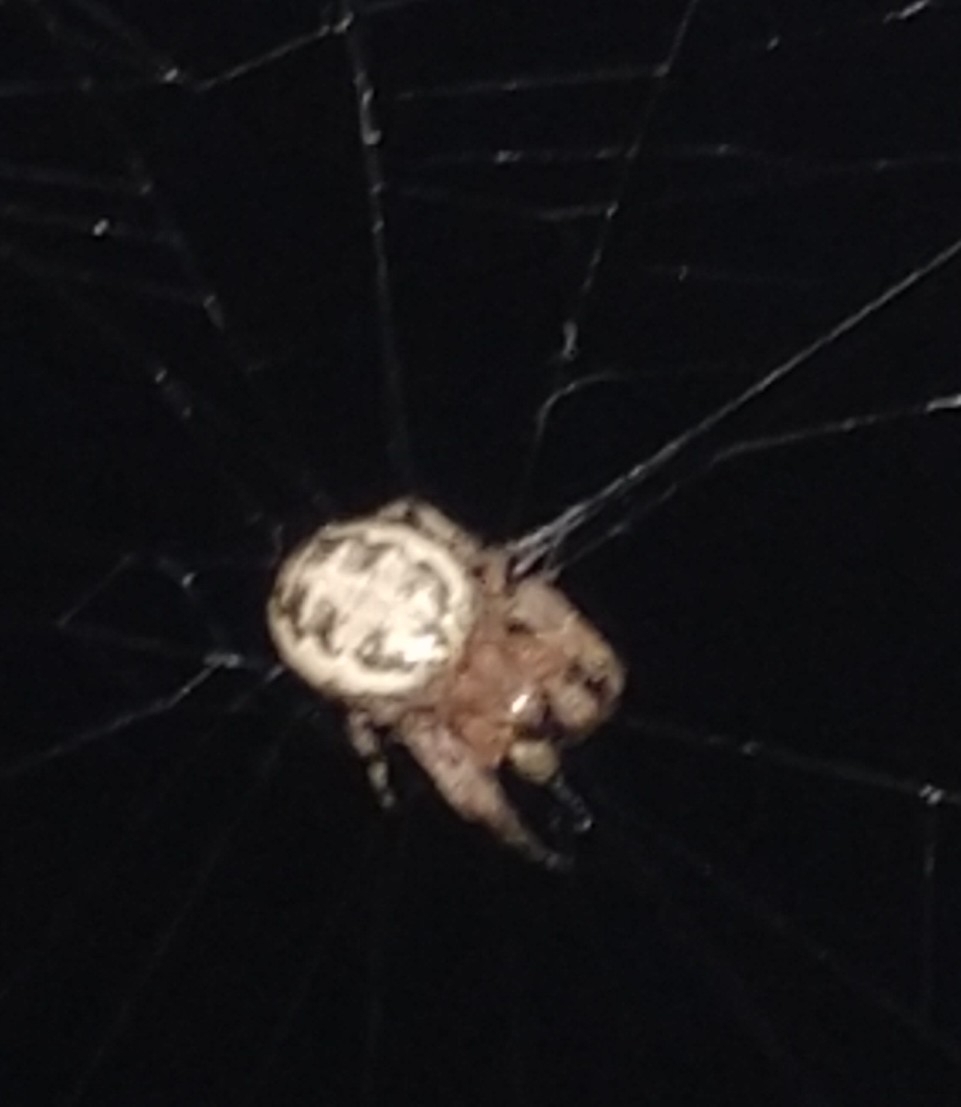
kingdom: Animalia
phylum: Arthropoda
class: Arachnida
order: Araneae
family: Araneidae
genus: Larinioides
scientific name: Larinioides cornutus
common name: Furrow orbweaver
